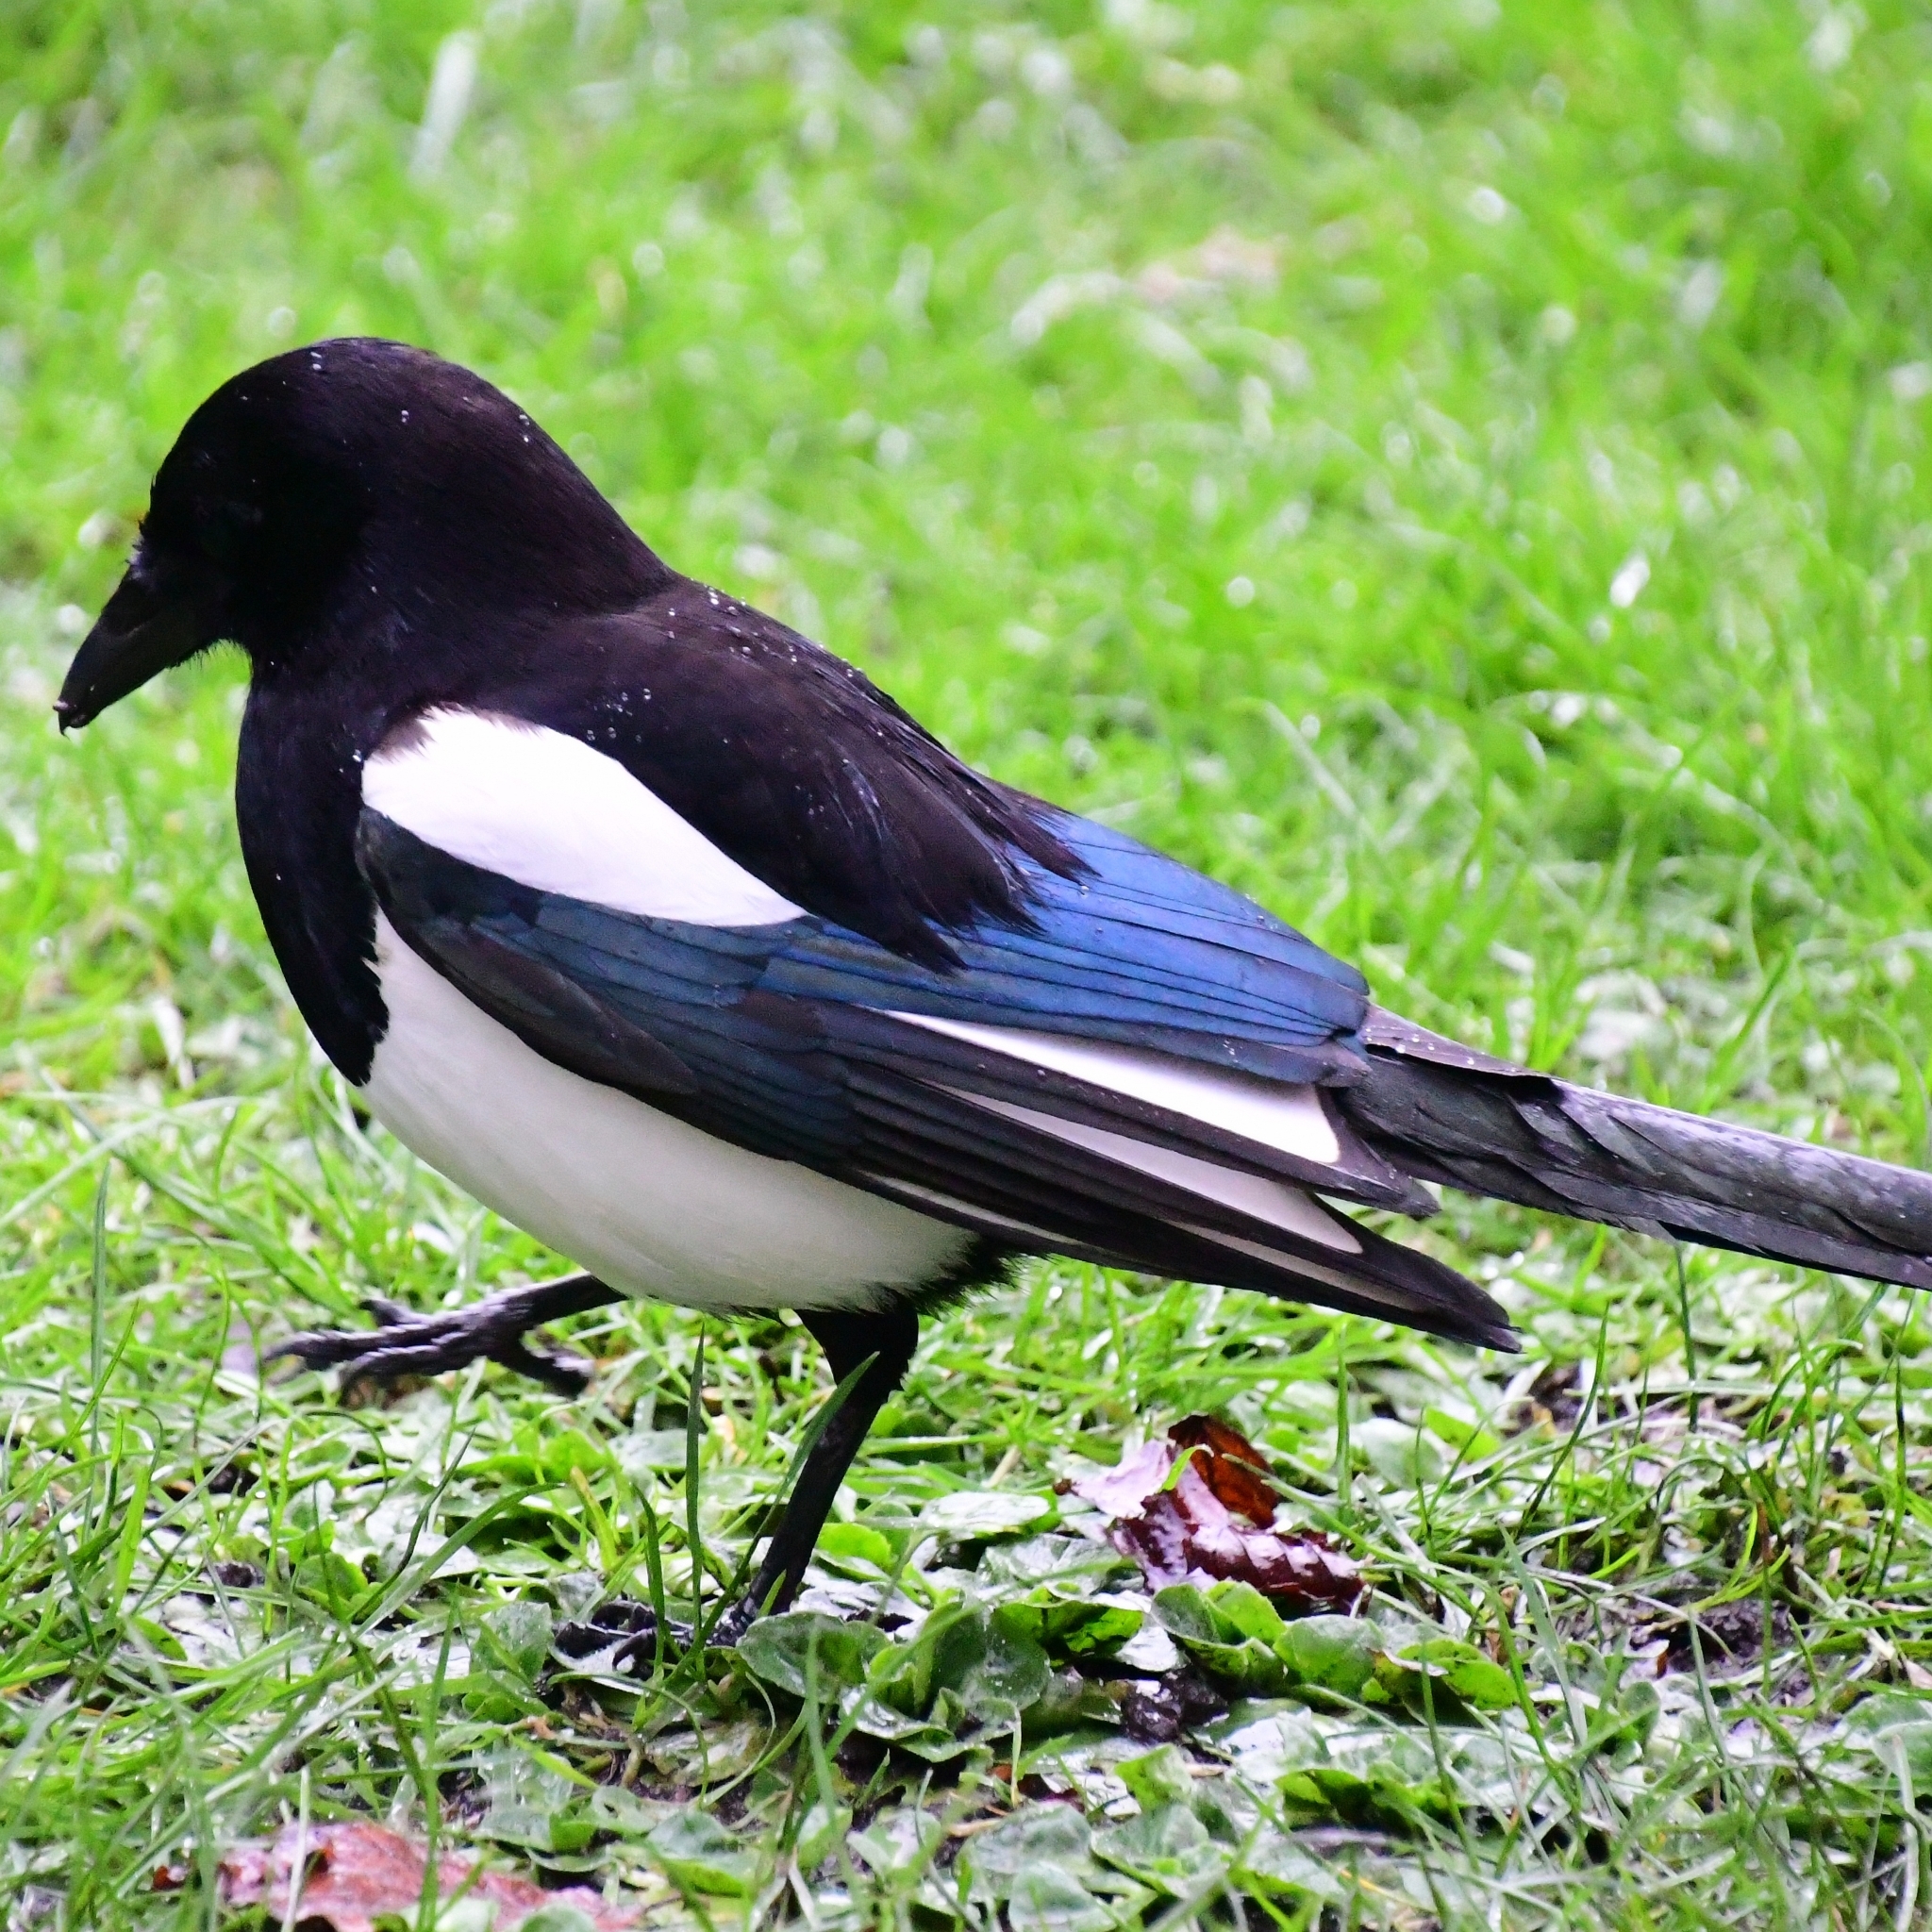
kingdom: Animalia
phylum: Chordata
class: Aves
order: Passeriformes
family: Corvidae
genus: Pica
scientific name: Pica pica
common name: Eurasian magpie
